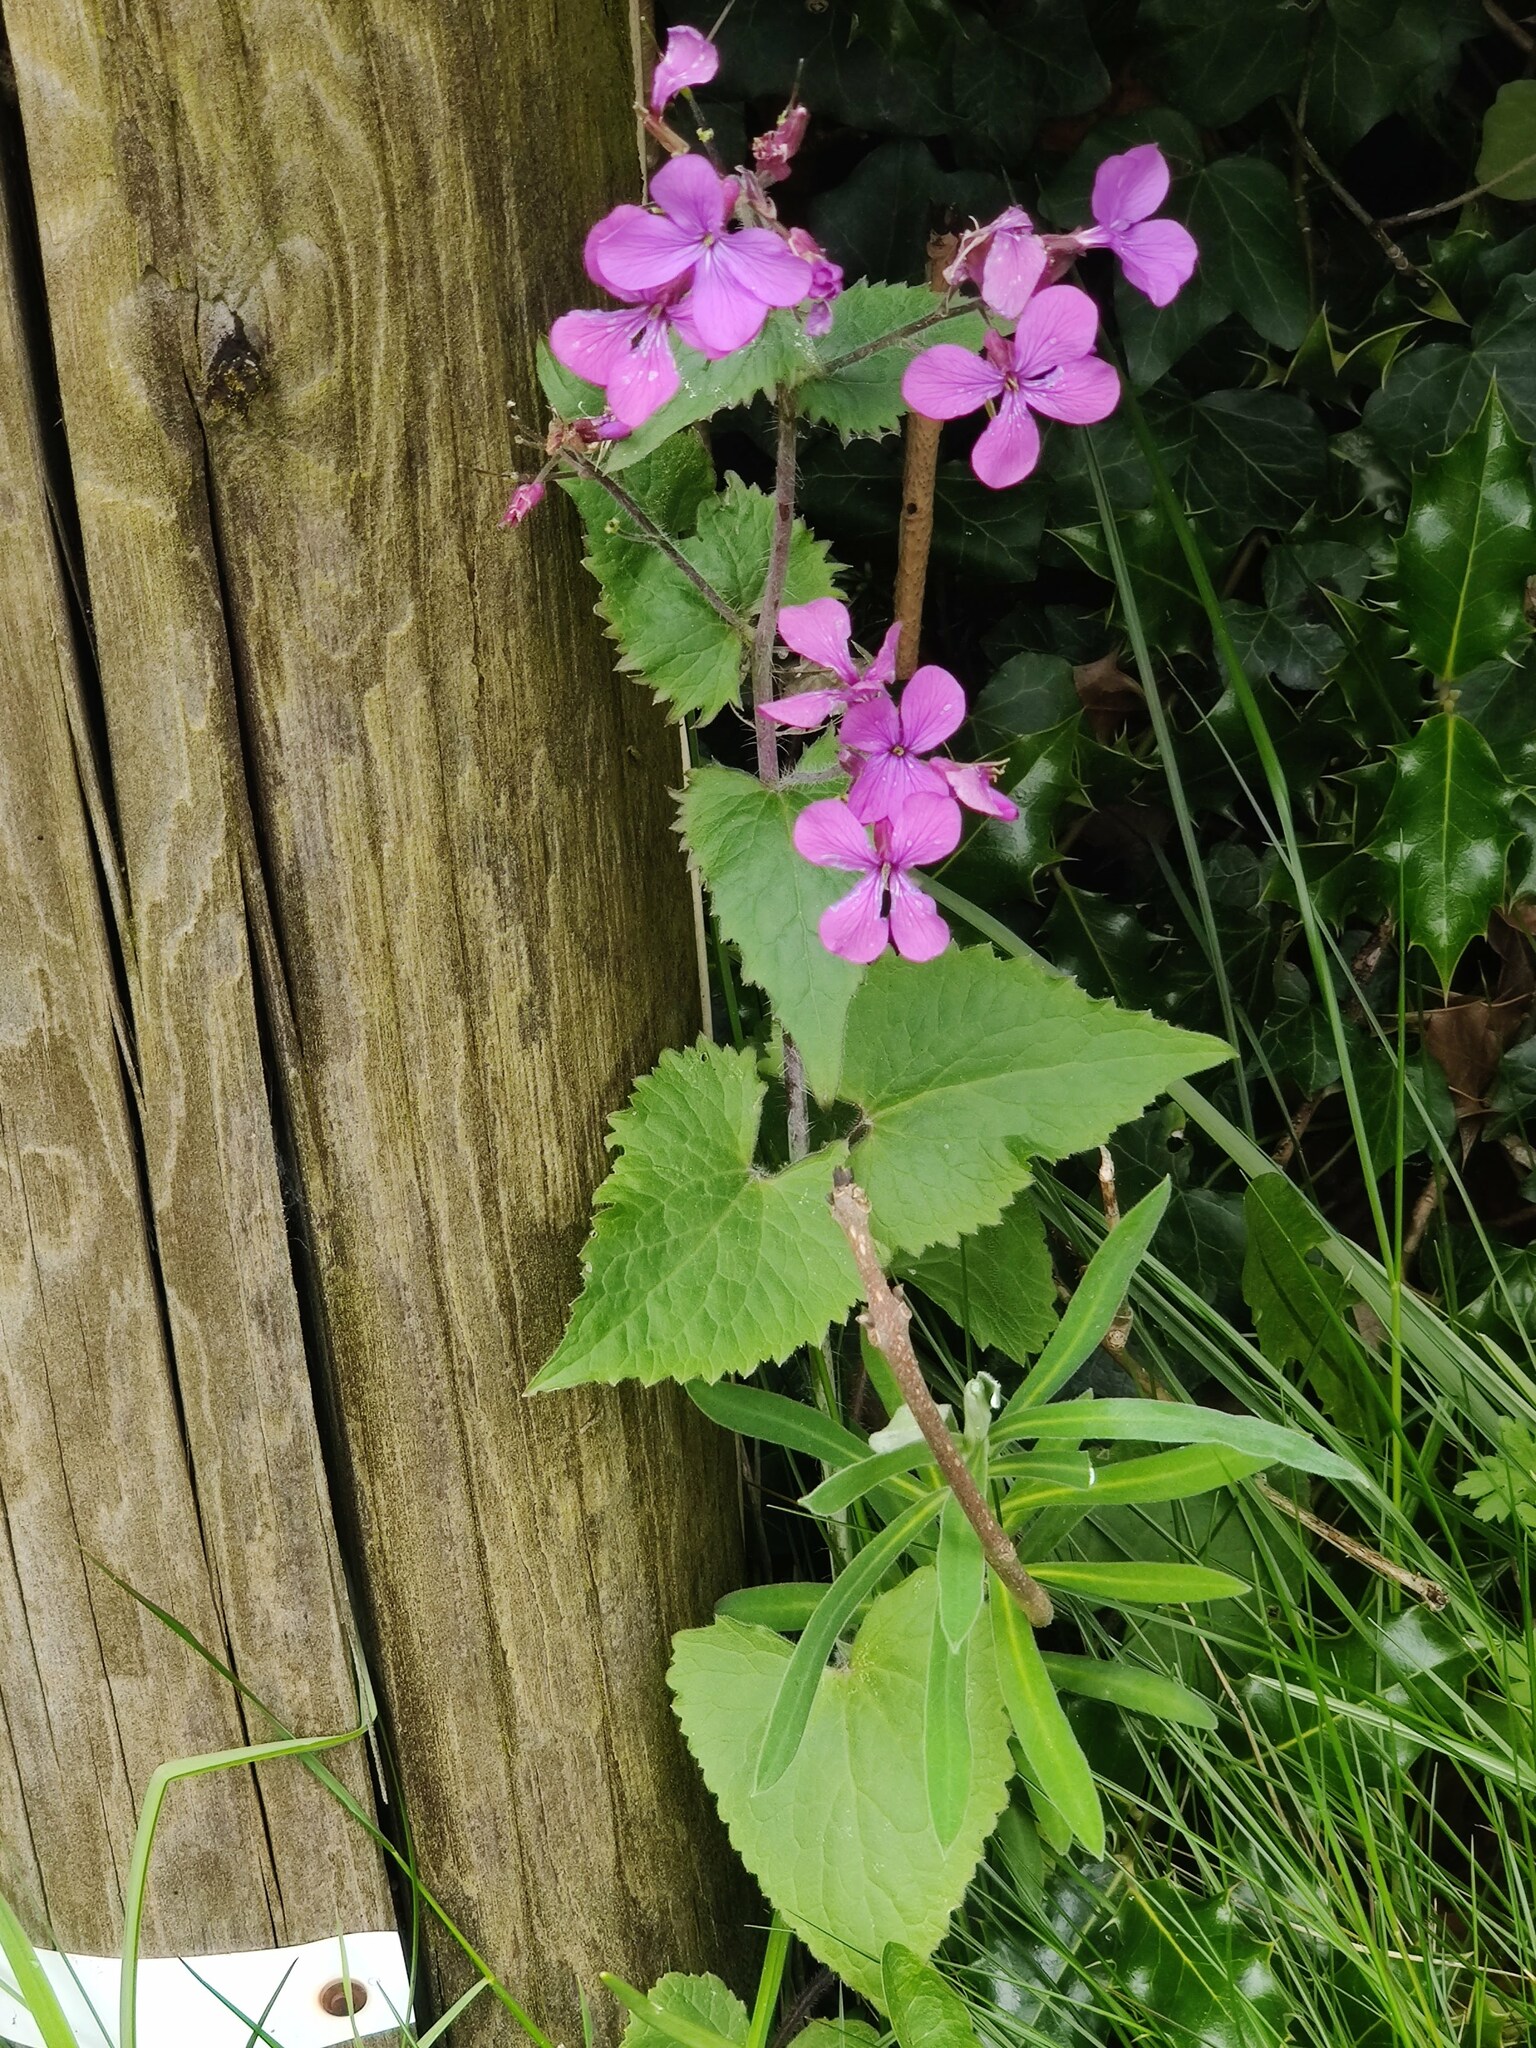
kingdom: Plantae
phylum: Tracheophyta
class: Magnoliopsida
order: Brassicales
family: Brassicaceae
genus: Lunaria
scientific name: Lunaria annua
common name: Honesty
